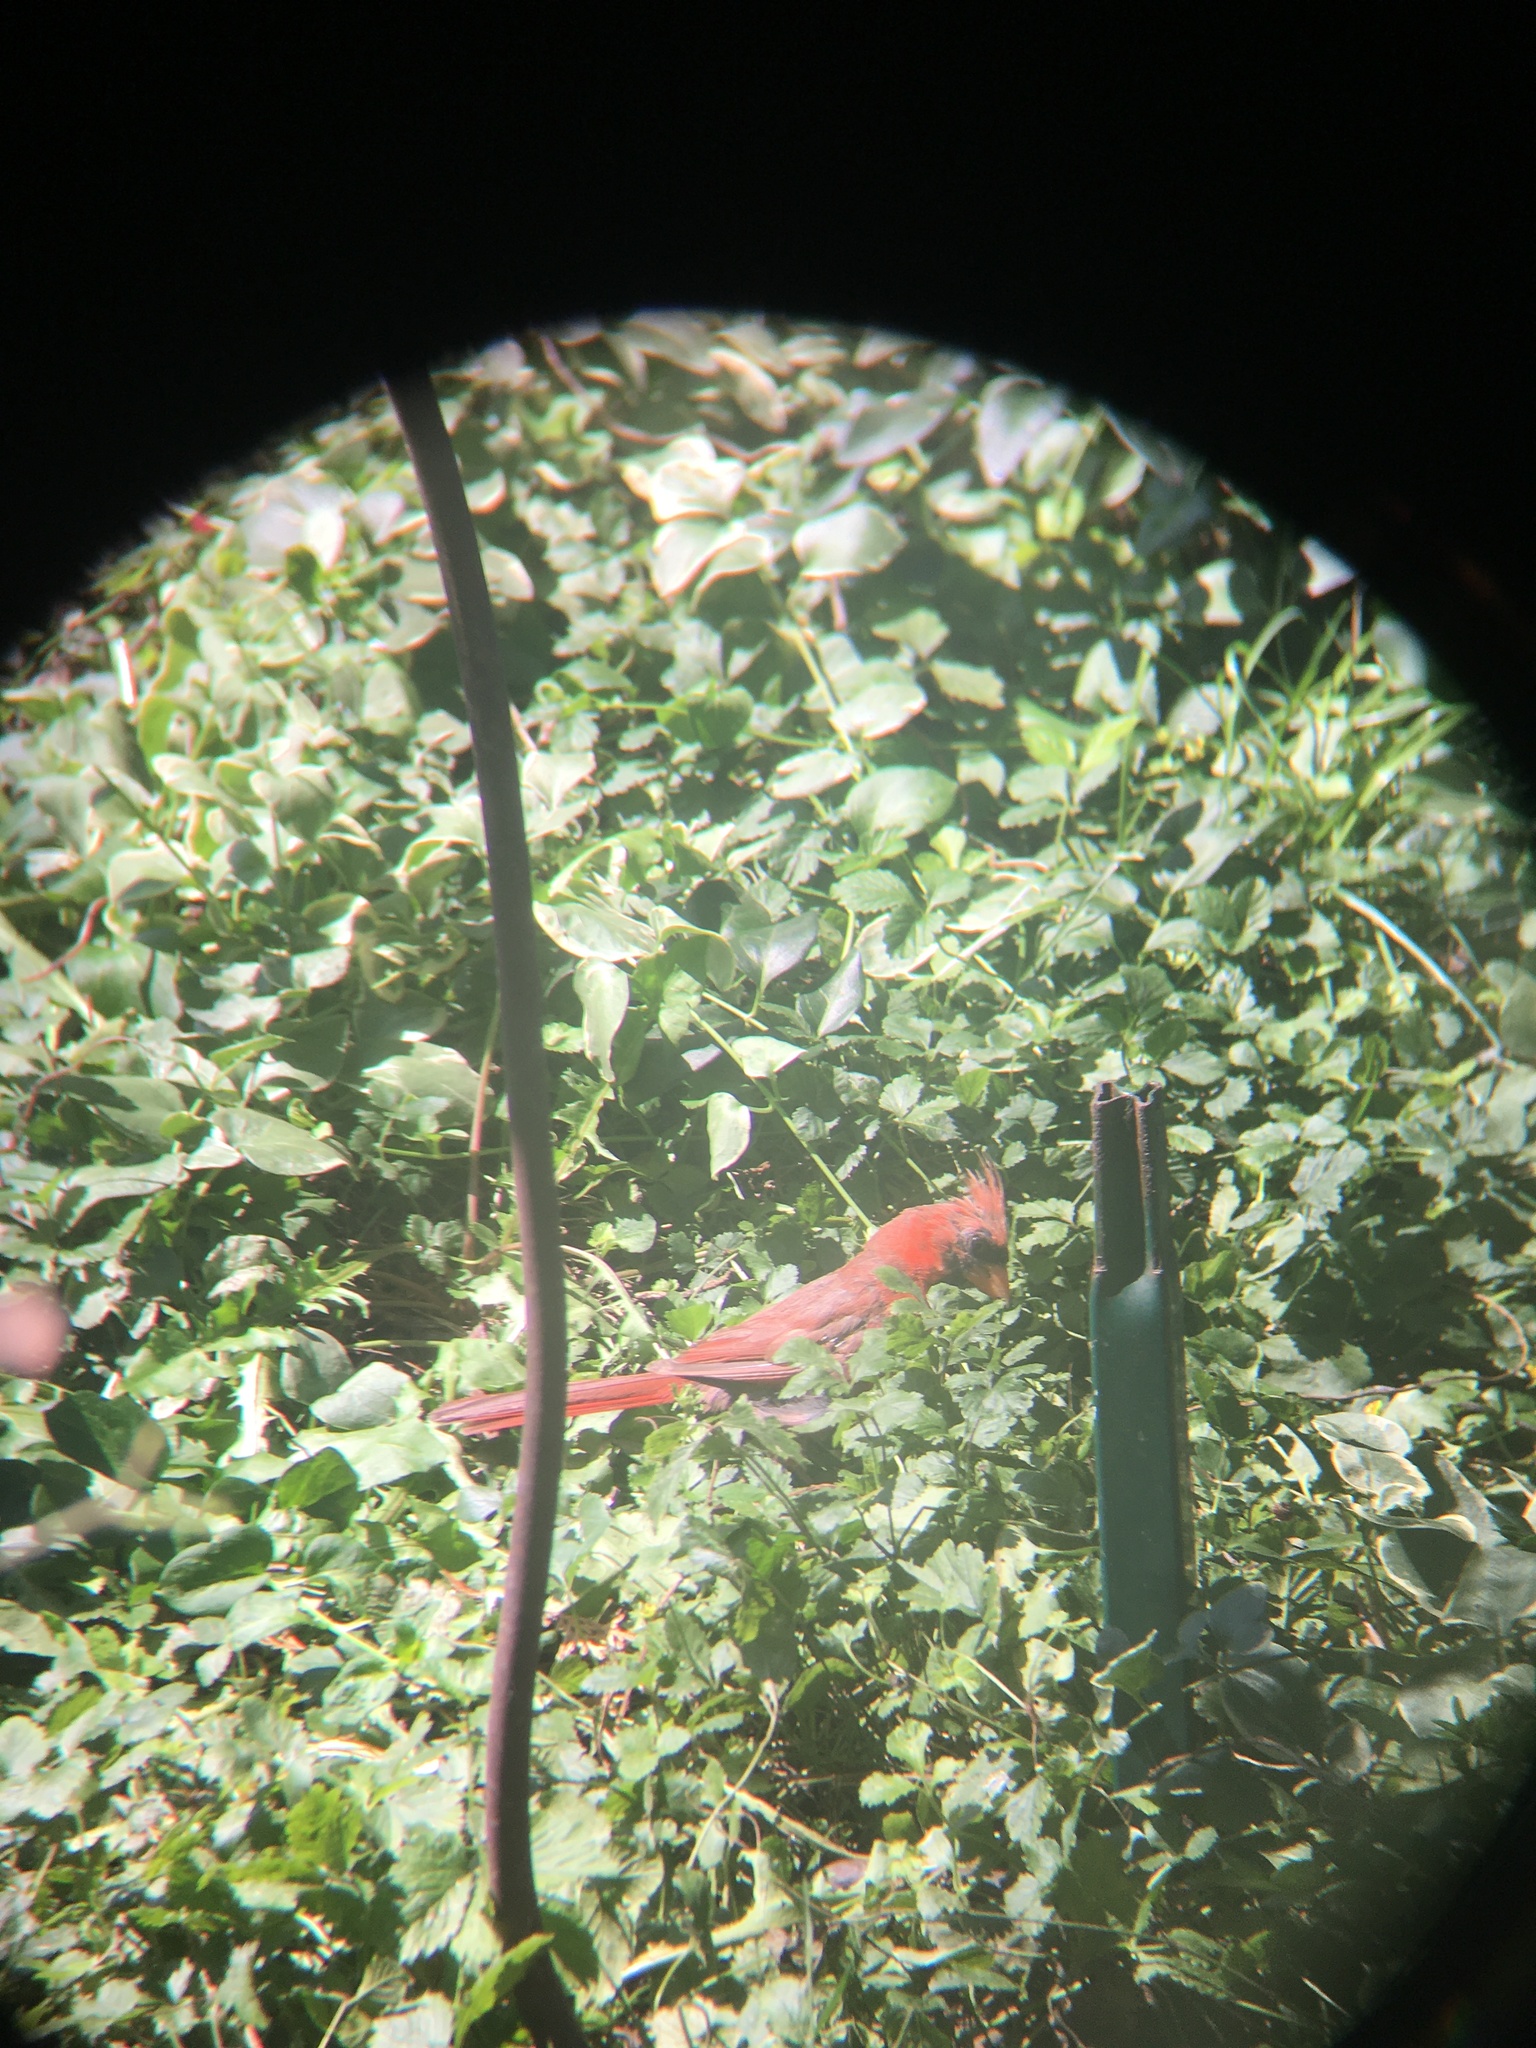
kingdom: Animalia
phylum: Chordata
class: Aves
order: Passeriformes
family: Cardinalidae
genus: Cardinalis
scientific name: Cardinalis cardinalis
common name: Northern cardinal
